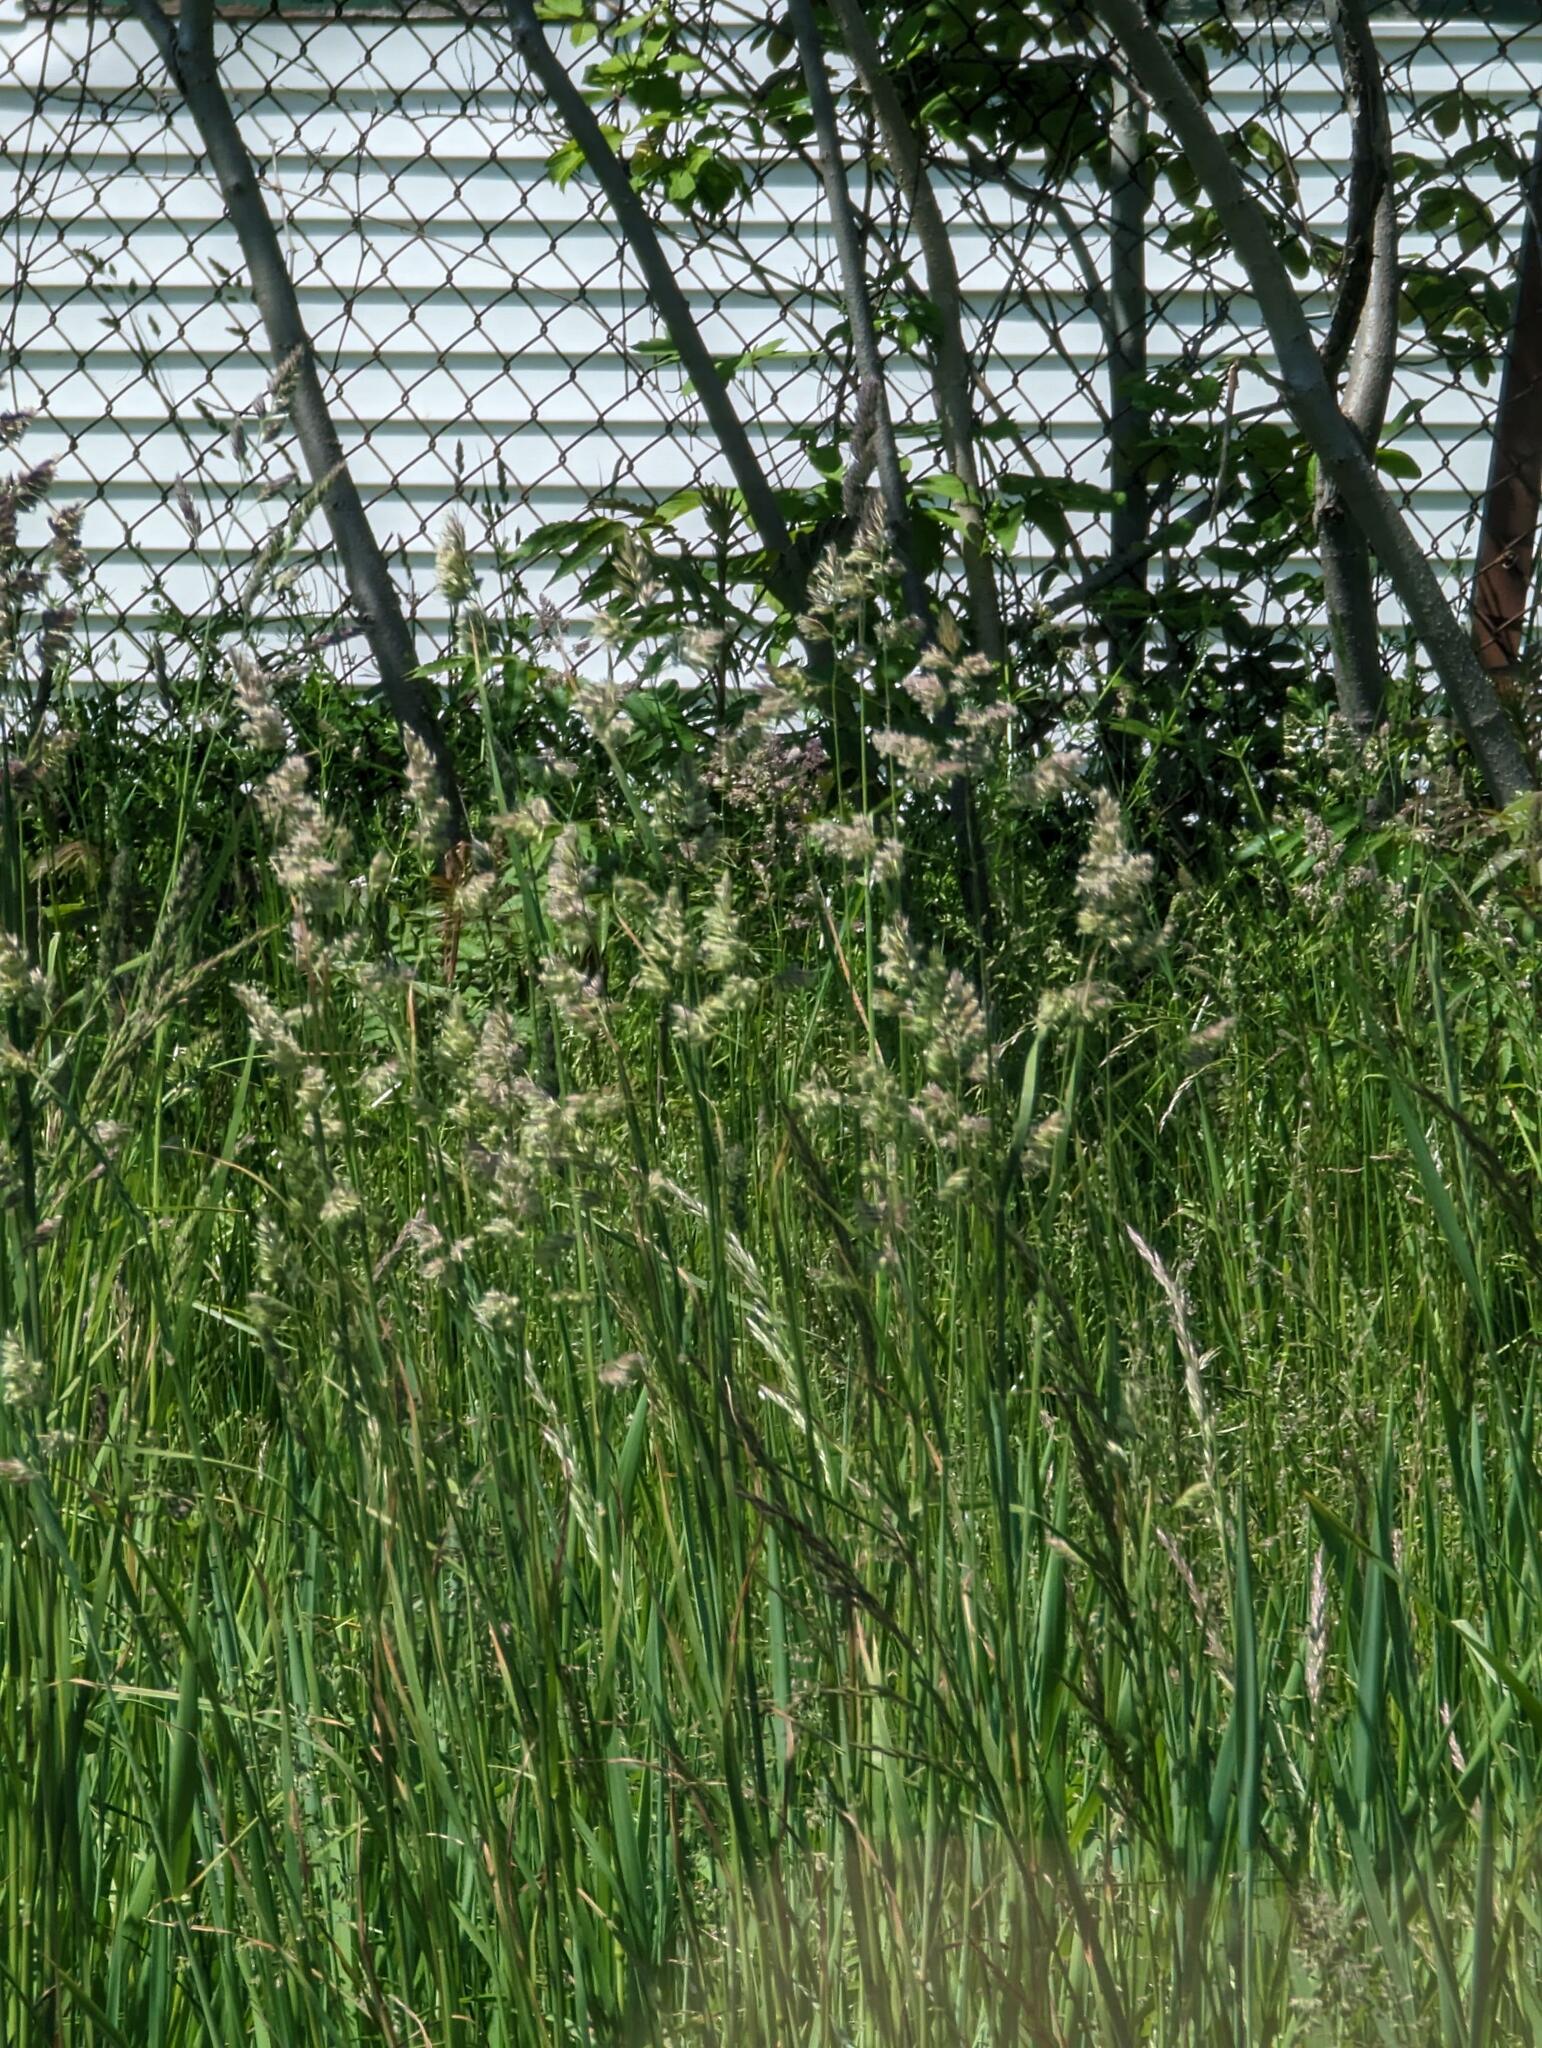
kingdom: Plantae
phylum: Tracheophyta
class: Liliopsida
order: Poales
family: Poaceae
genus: Dactylis
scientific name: Dactylis glomerata
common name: Orchardgrass
